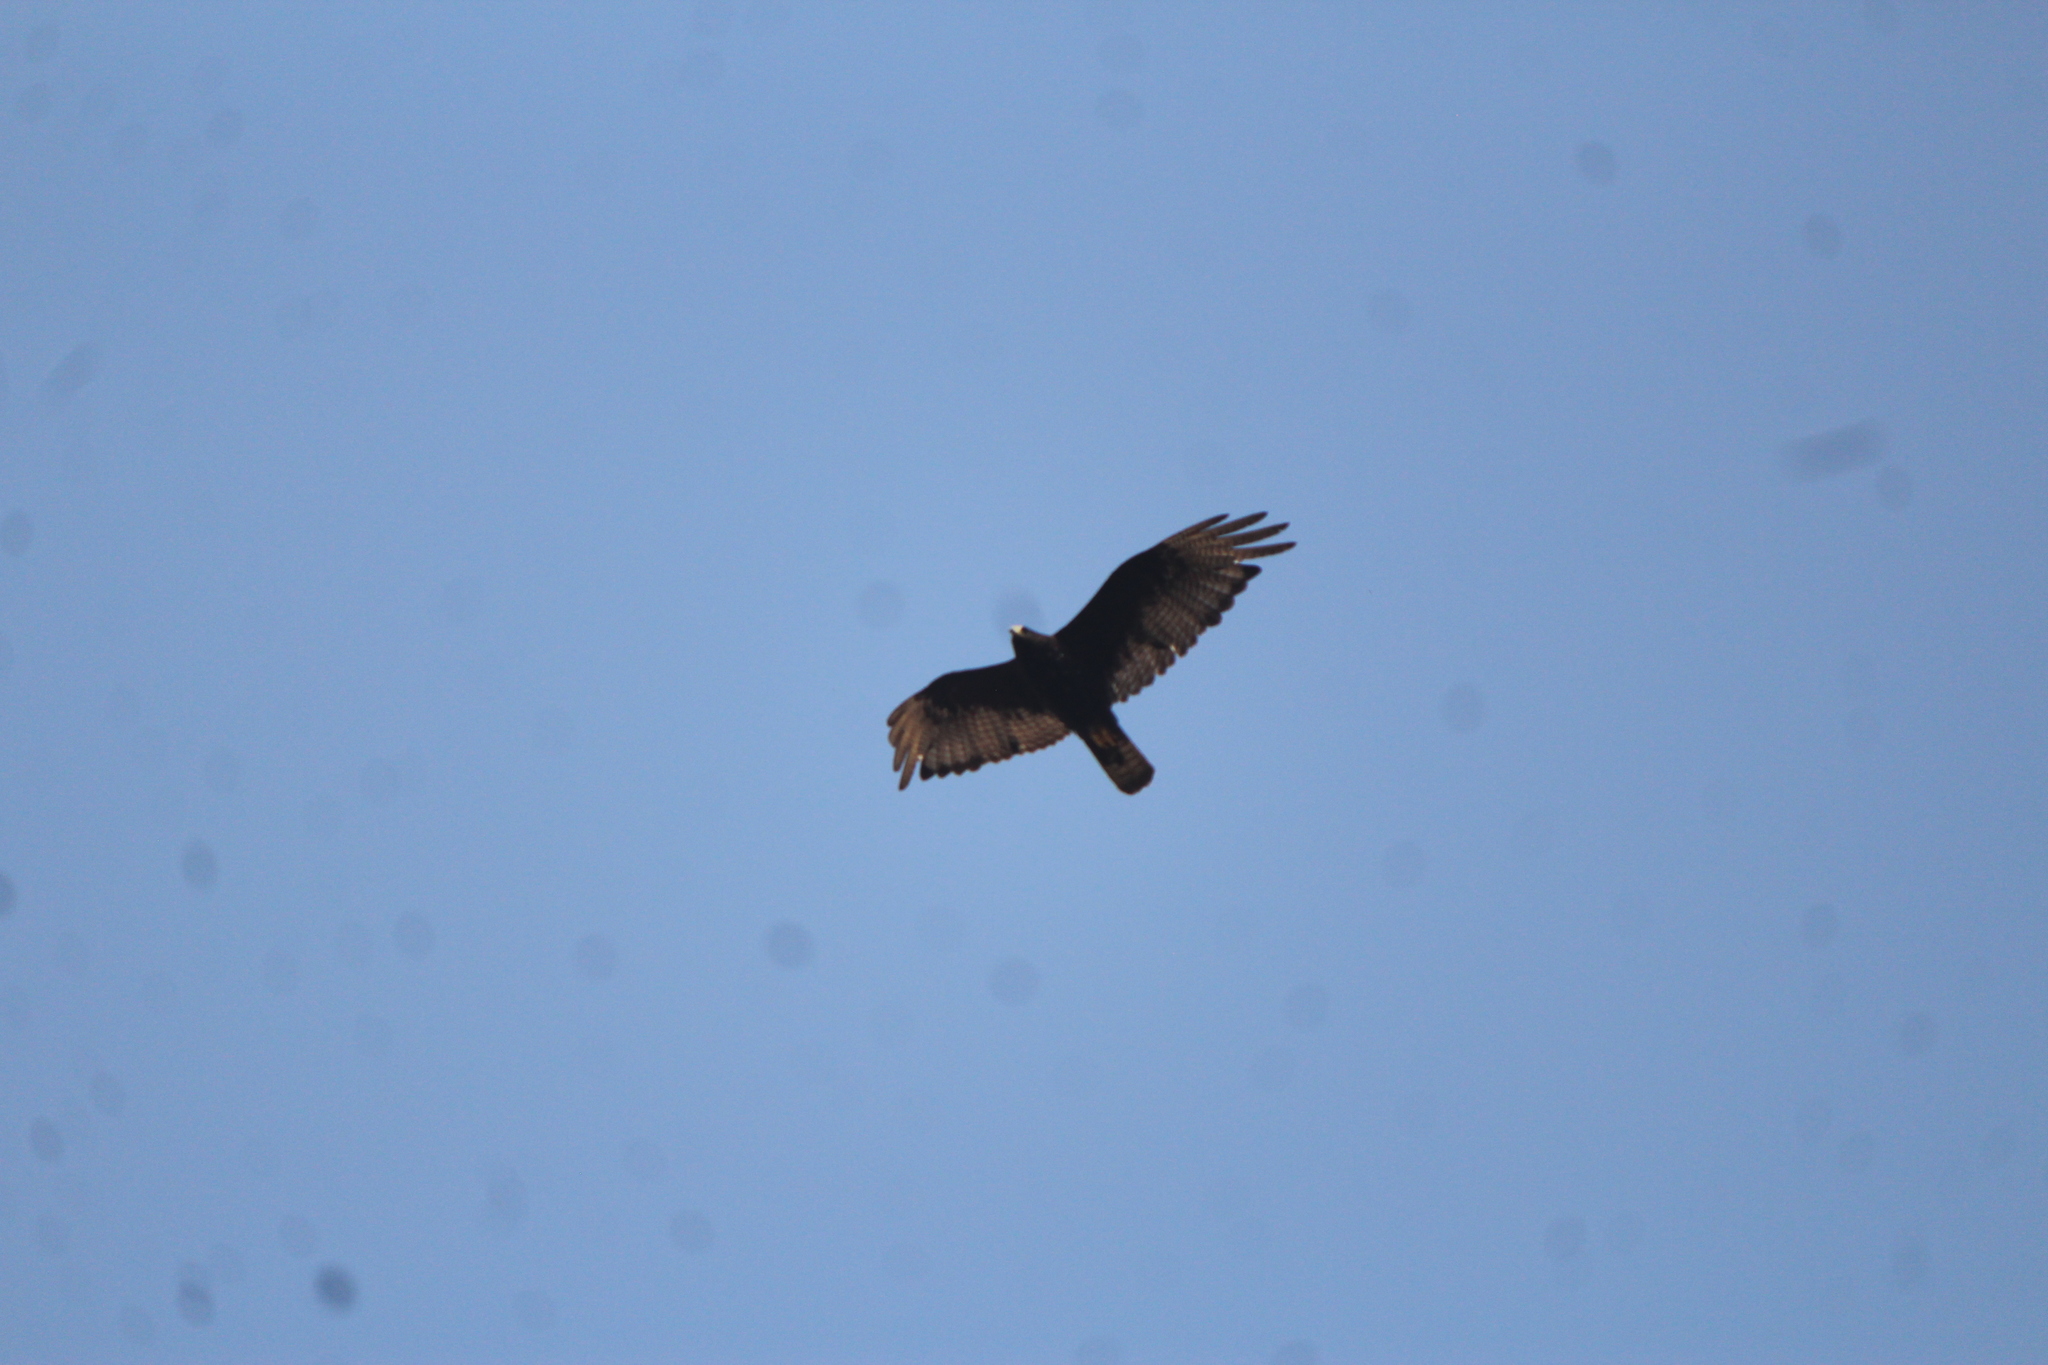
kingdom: Animalia
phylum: Chordata
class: Aves
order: Accipitriformes
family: Accipitridae
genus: Buteo
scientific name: Buteo albonotatus
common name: Zone-tailed hawk
